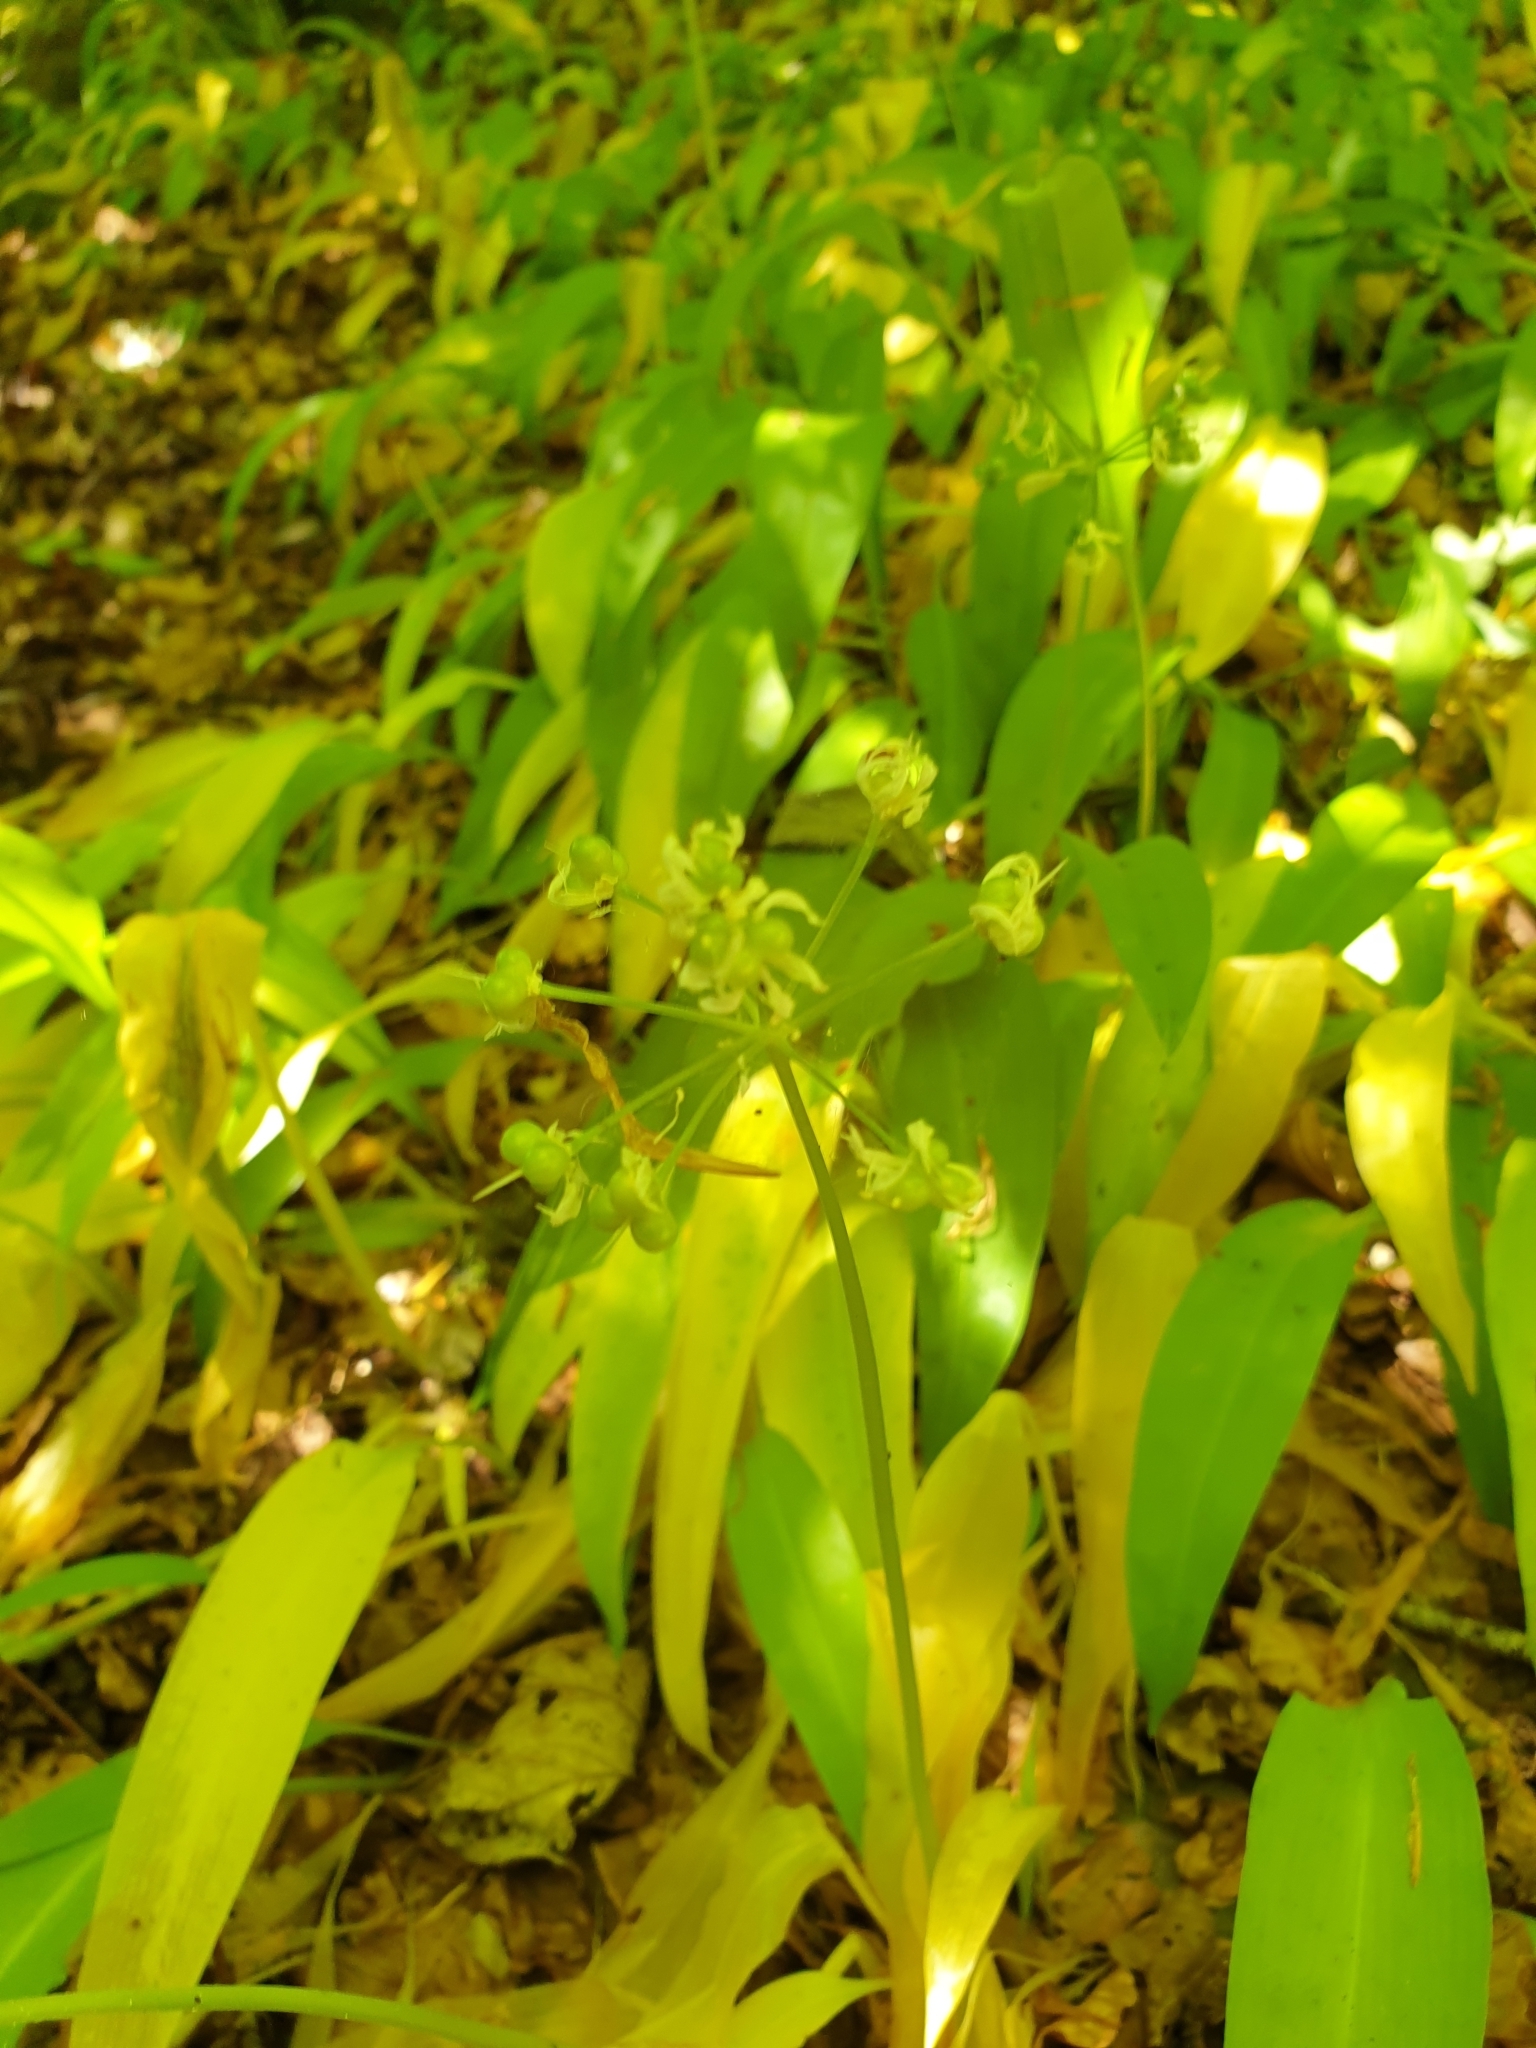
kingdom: Plantae
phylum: Tracheophyta
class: Liliopsida
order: Asparagales
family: Amaryllidaceae
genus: Allium
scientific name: Allium ursinum
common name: Ramsons
